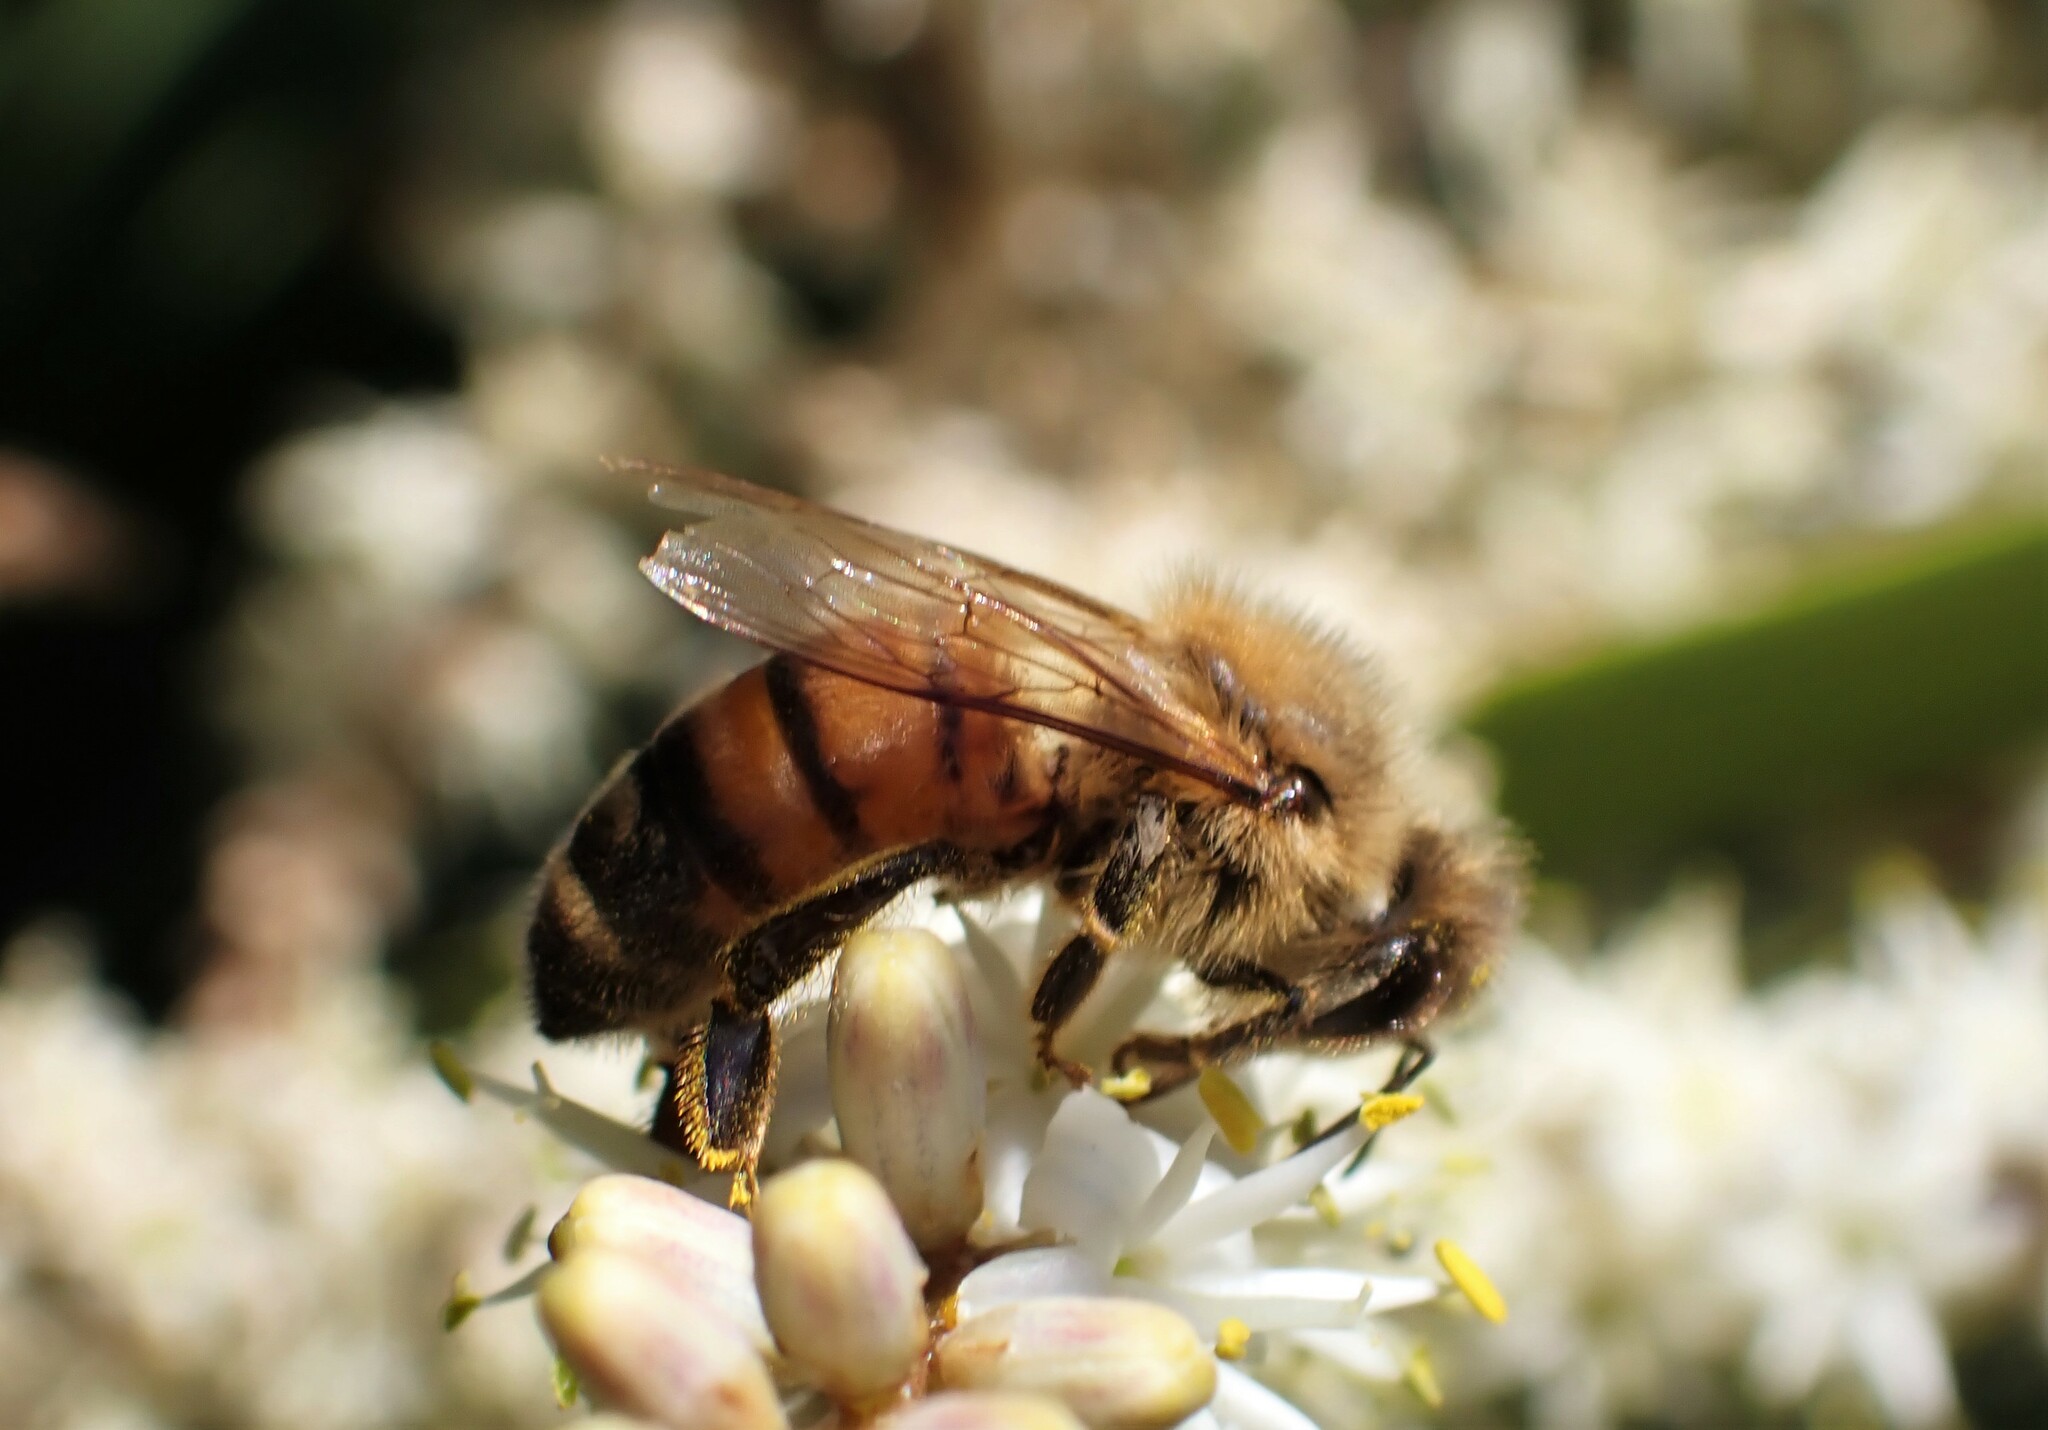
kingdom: Animalia
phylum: Arthropoda
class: Insecta
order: Hymenoptera
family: Apidae
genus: Apis
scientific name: Apis mellifera
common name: Honey bee
